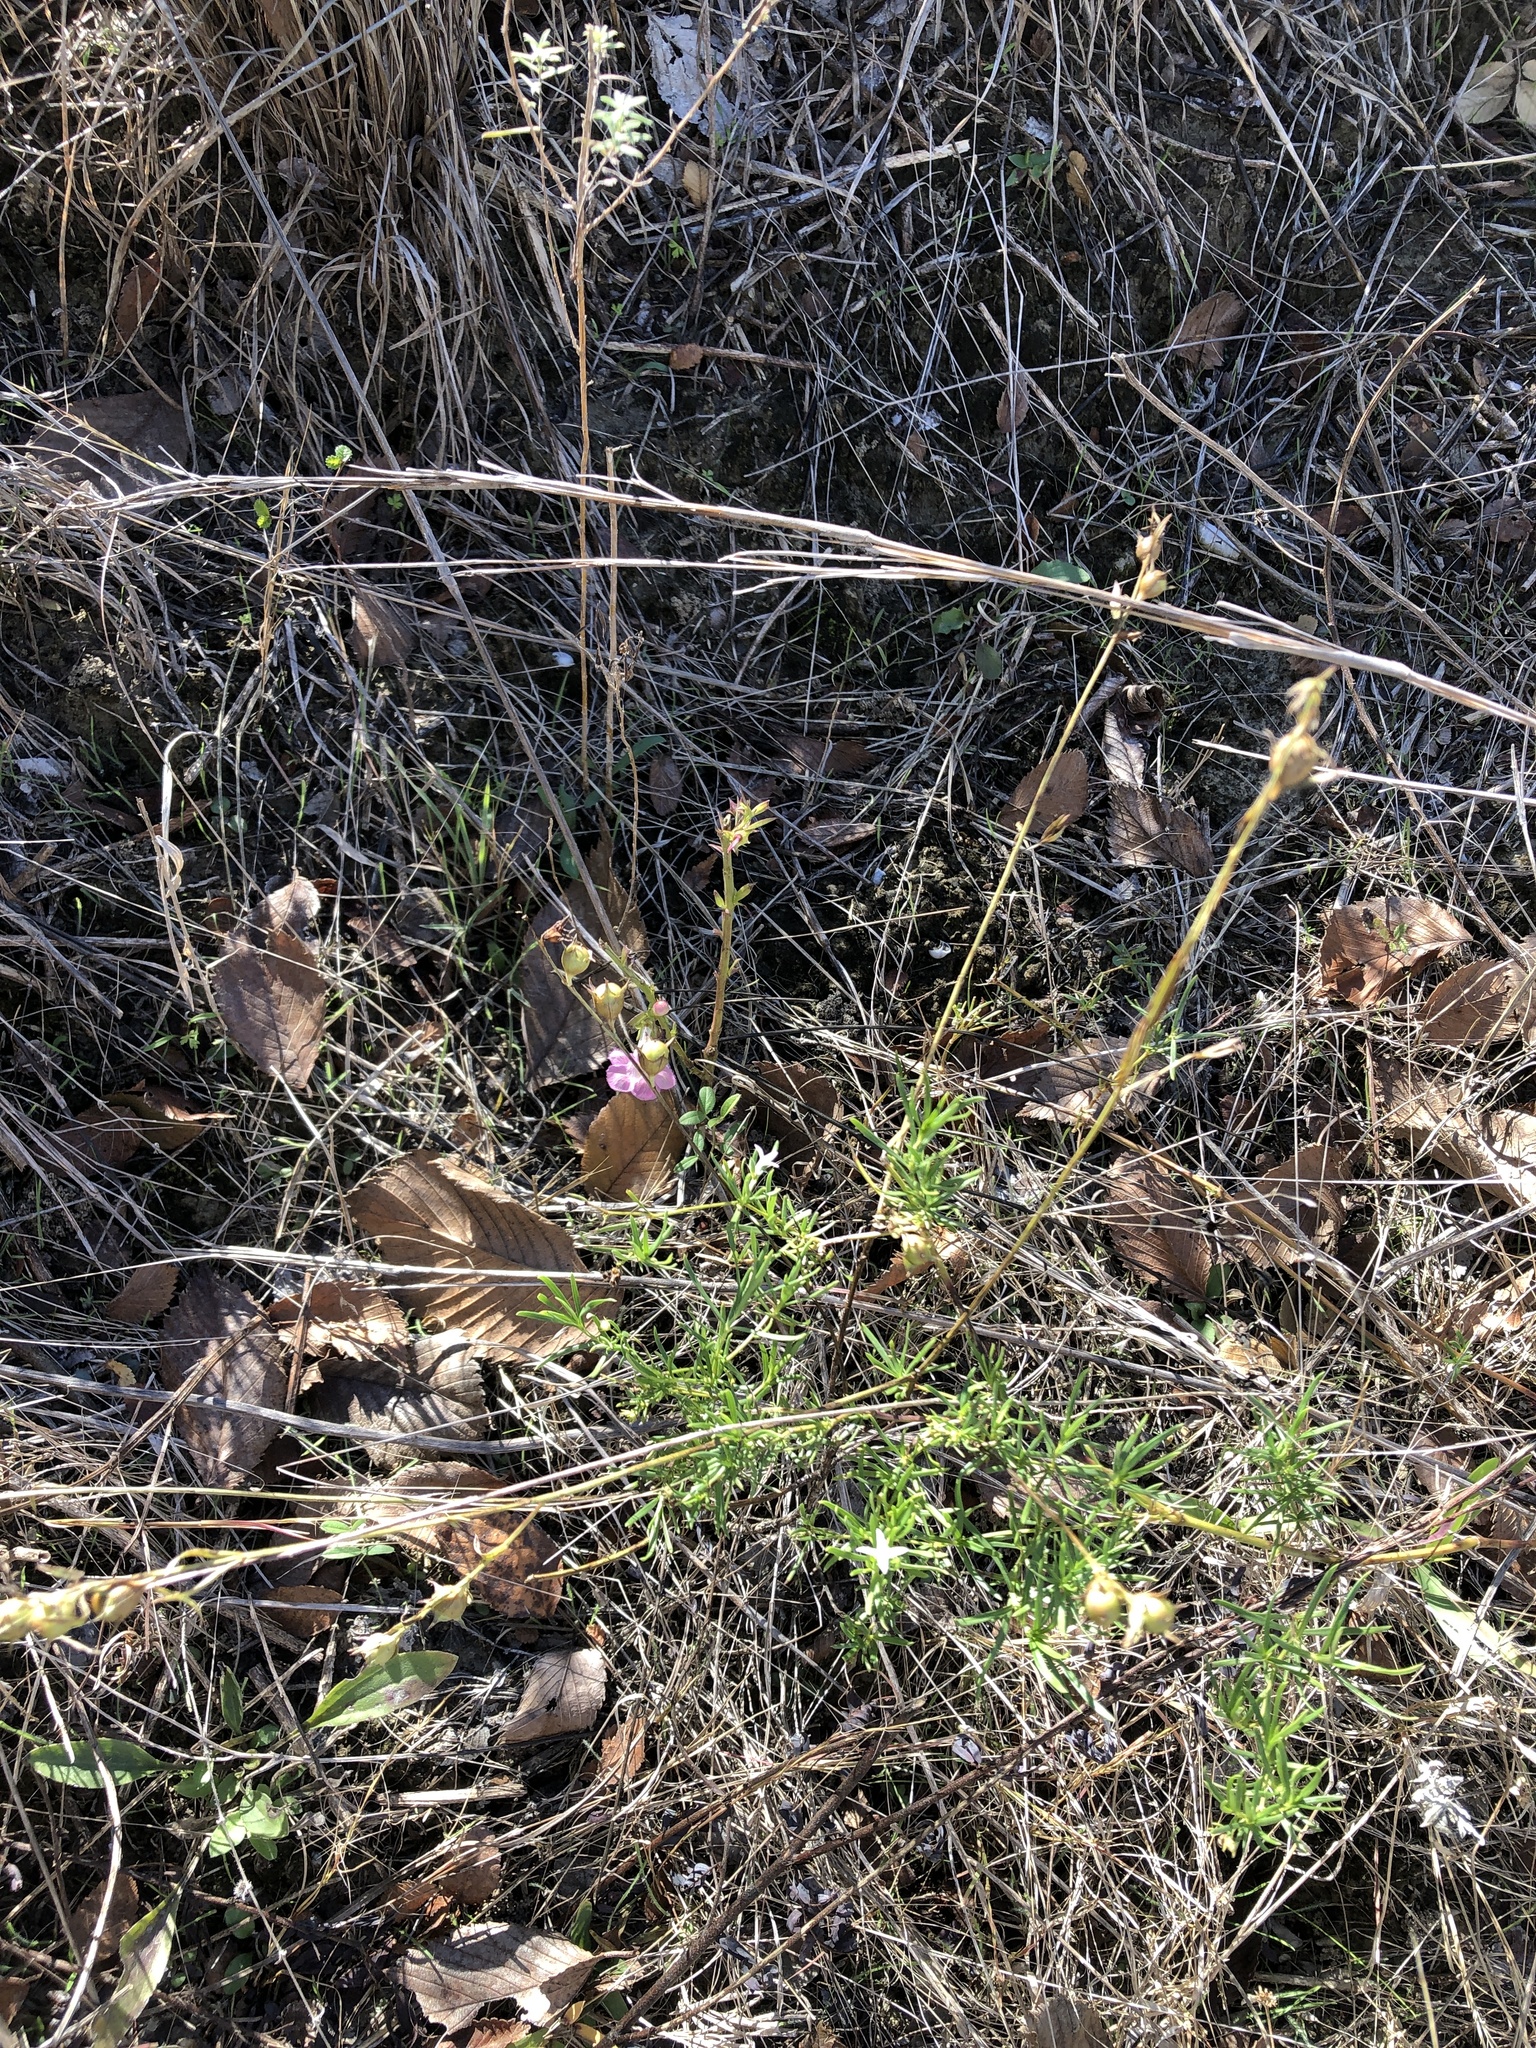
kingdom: Plantae
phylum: Tracheophyta
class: Magnoliopsida
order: Lamiales
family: Orobanchaceae
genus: Agalinis
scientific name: Agalinis heterophylla
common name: Prairie agalinis
